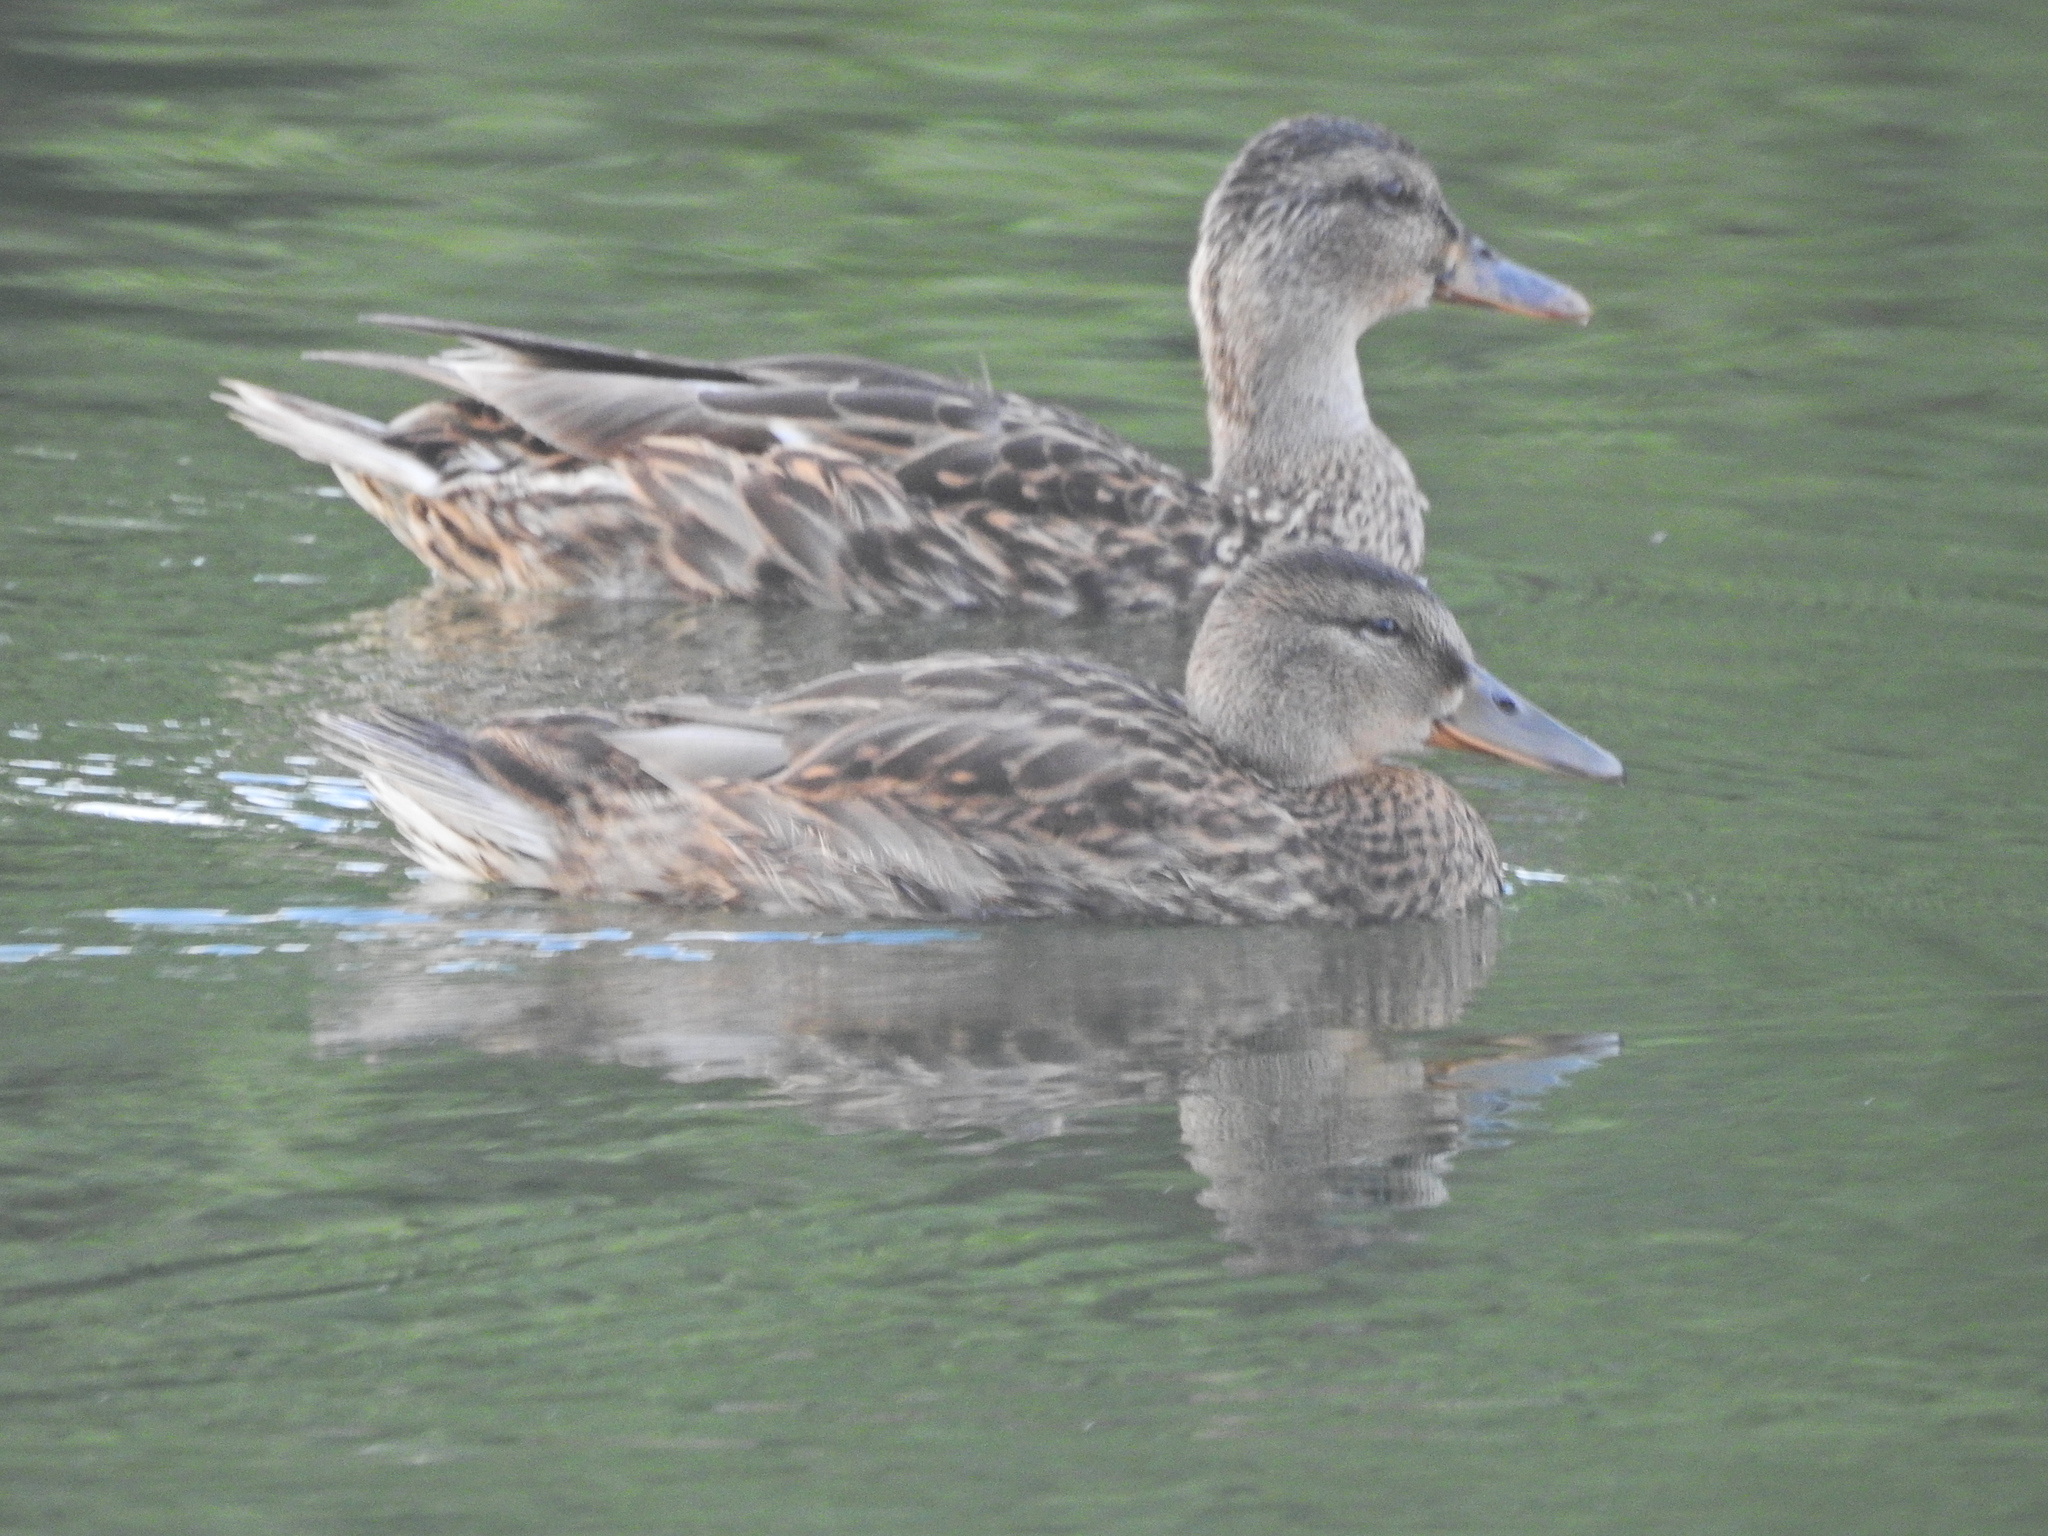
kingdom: Animalia
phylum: Chordata
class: Aves
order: Anseriformes
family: Anatidae
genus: Anas
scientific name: Anas platyrhynchos
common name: Mallard
